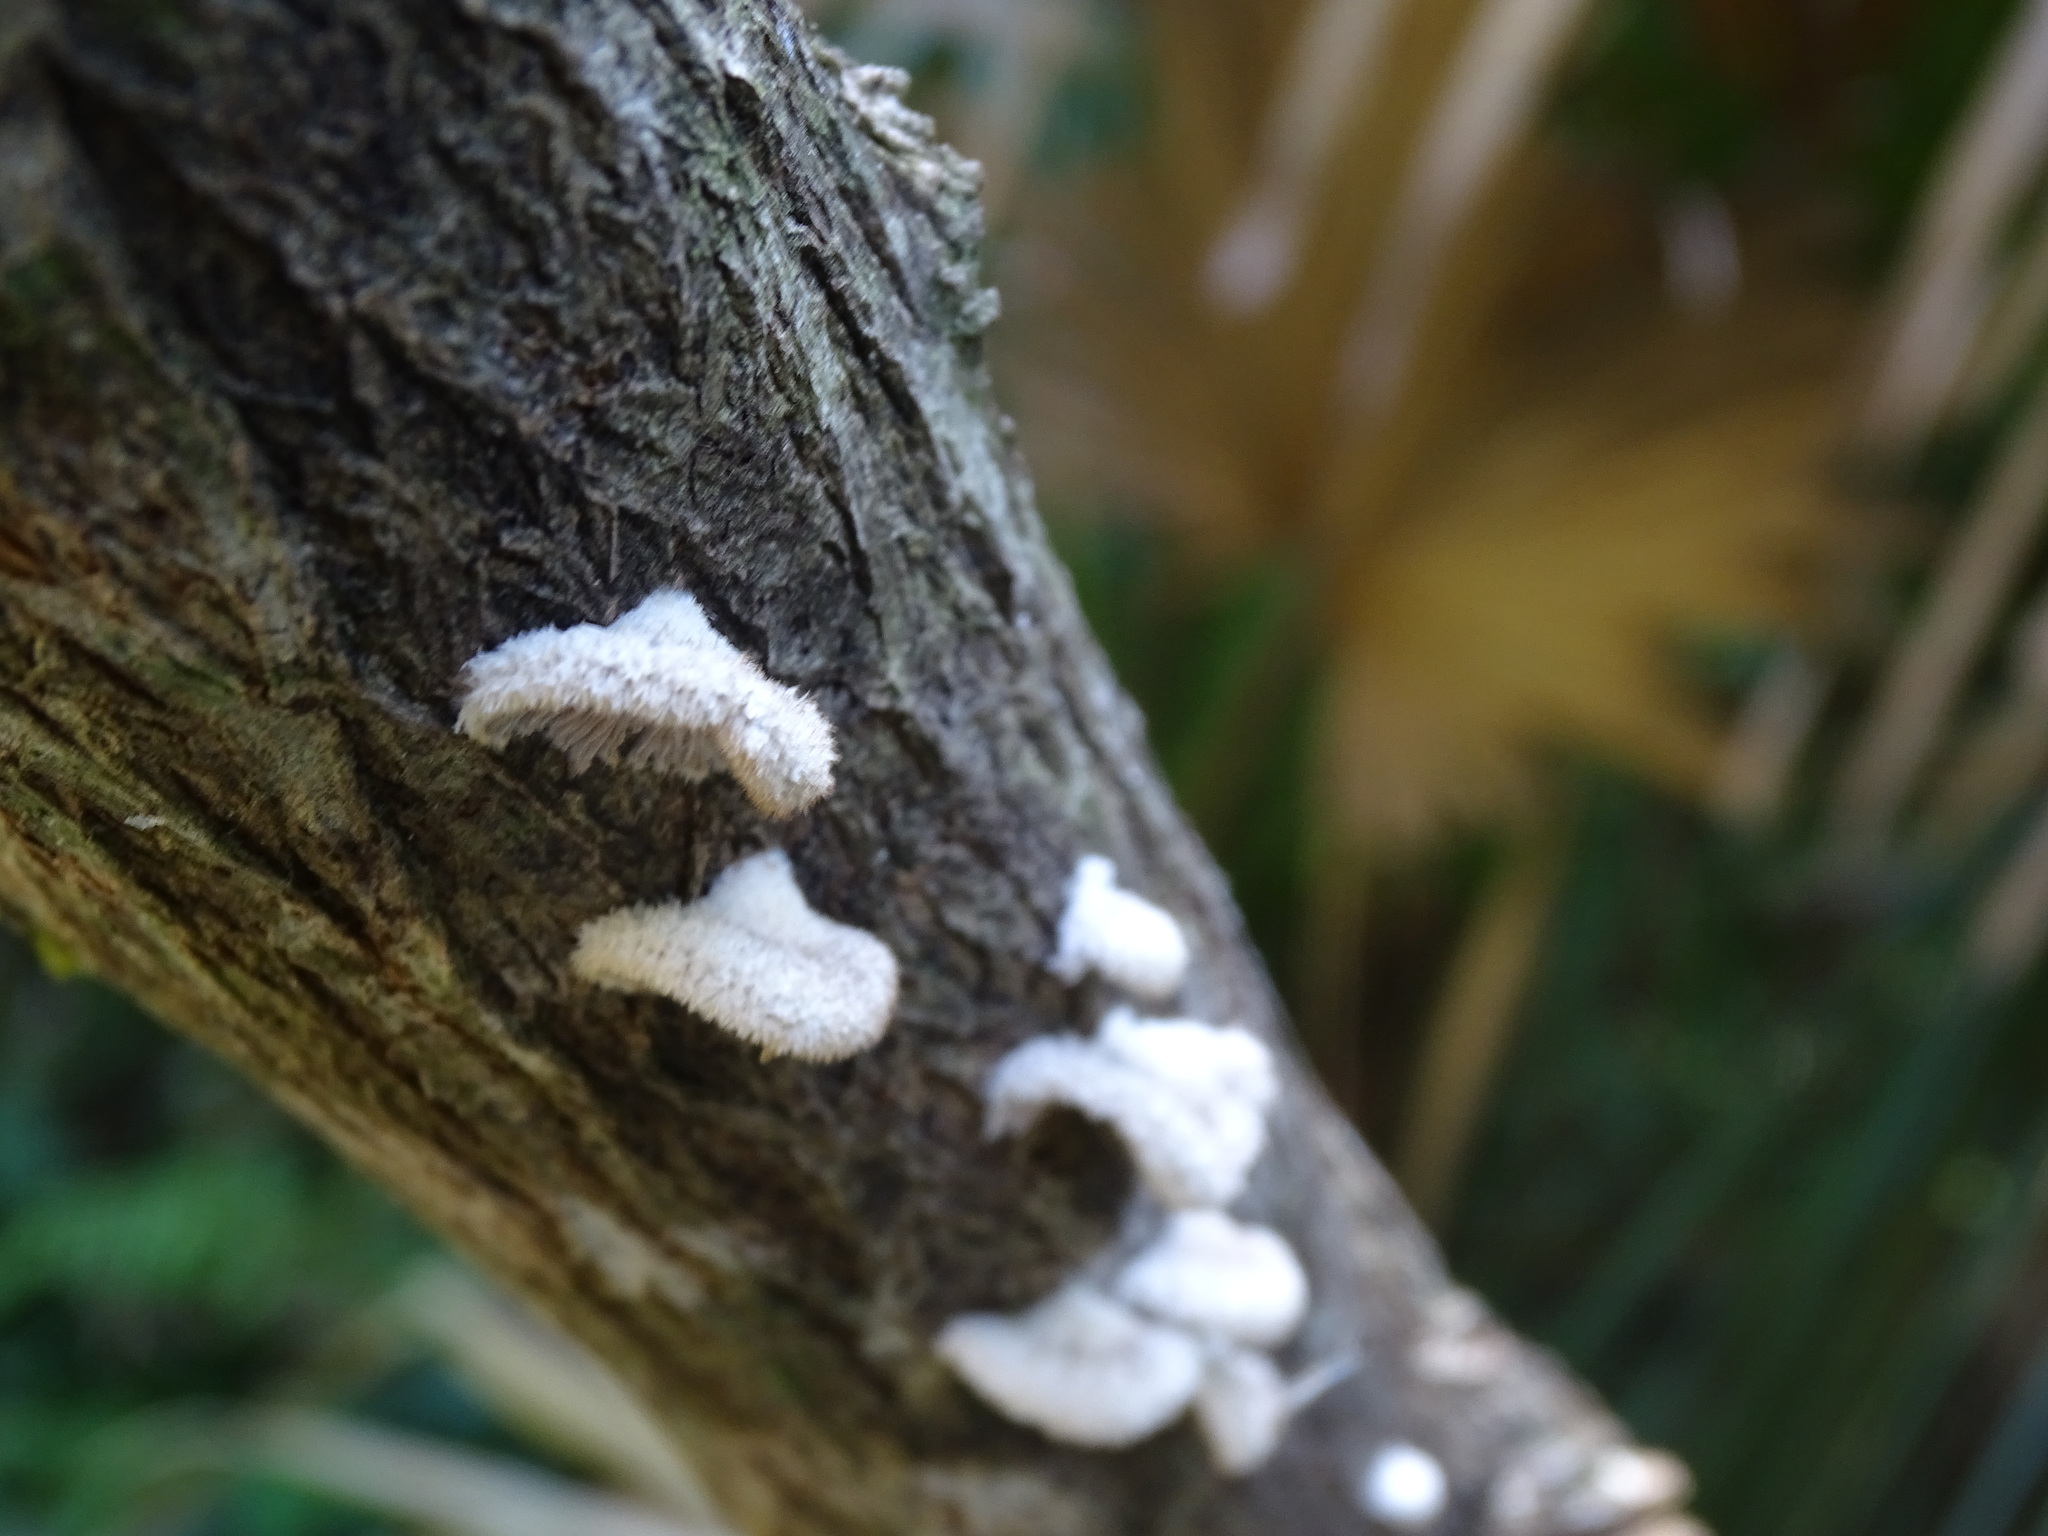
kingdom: Fungi
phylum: Basidiomycota
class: Agaricomycetes
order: Agaricales
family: Schizophyllaceae
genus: Schizophyllum
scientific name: Schizophyllum commune
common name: Common porecrust
